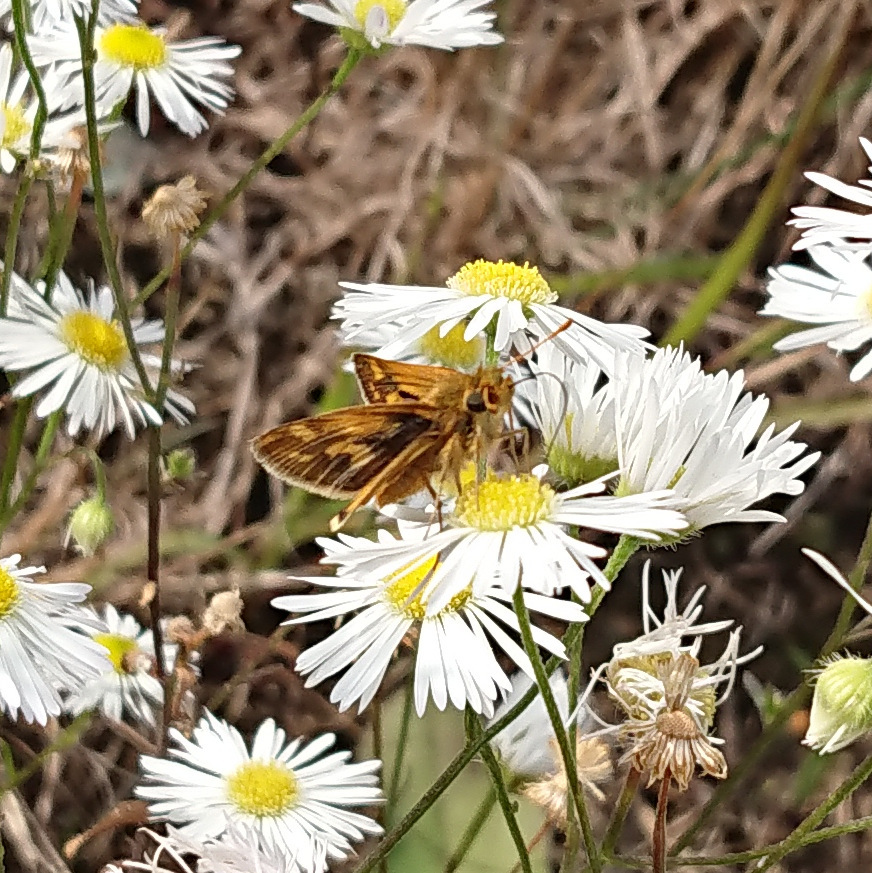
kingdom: Animalia
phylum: Arthropoda
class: Insecta
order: Lepidoptera
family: Hesperiidae
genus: Polites
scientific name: Polites coras
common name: Peck's skipper
